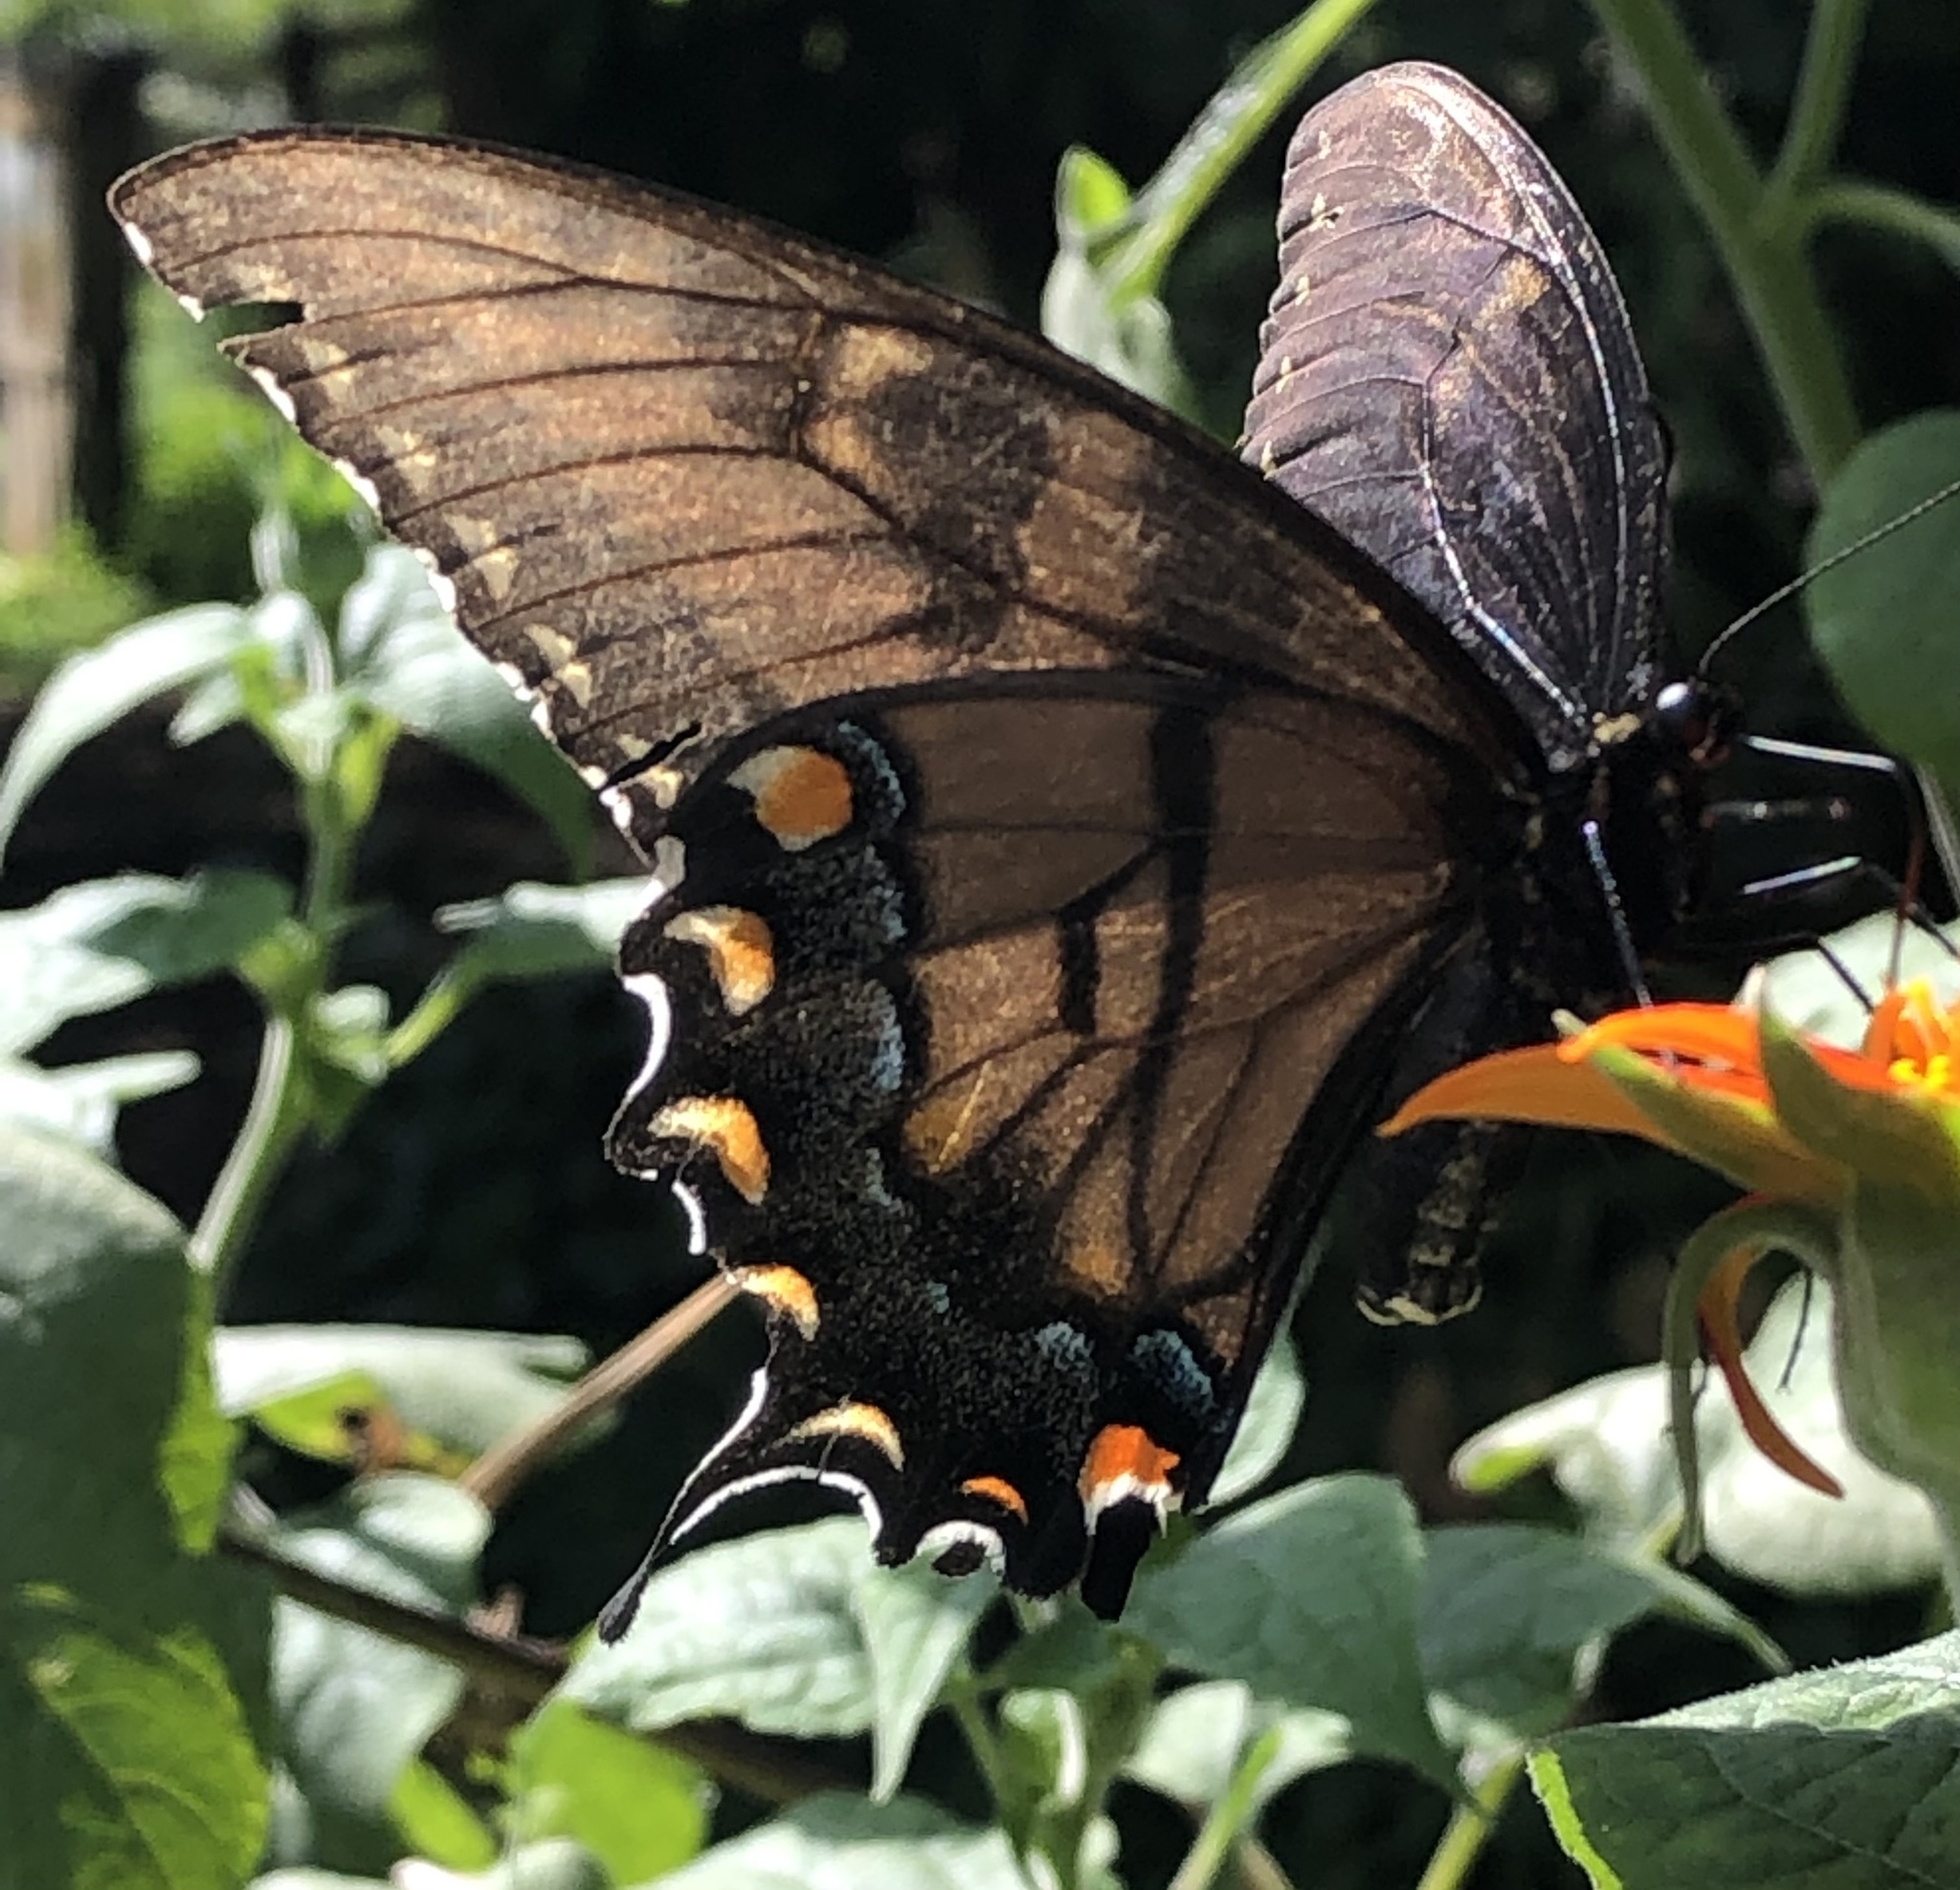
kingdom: Animalia
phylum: Arthropoda
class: Insecta
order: Lepidoptera
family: Papilionidae
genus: Papilio
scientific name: Papilio glaucus
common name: Tiger swallowtail
